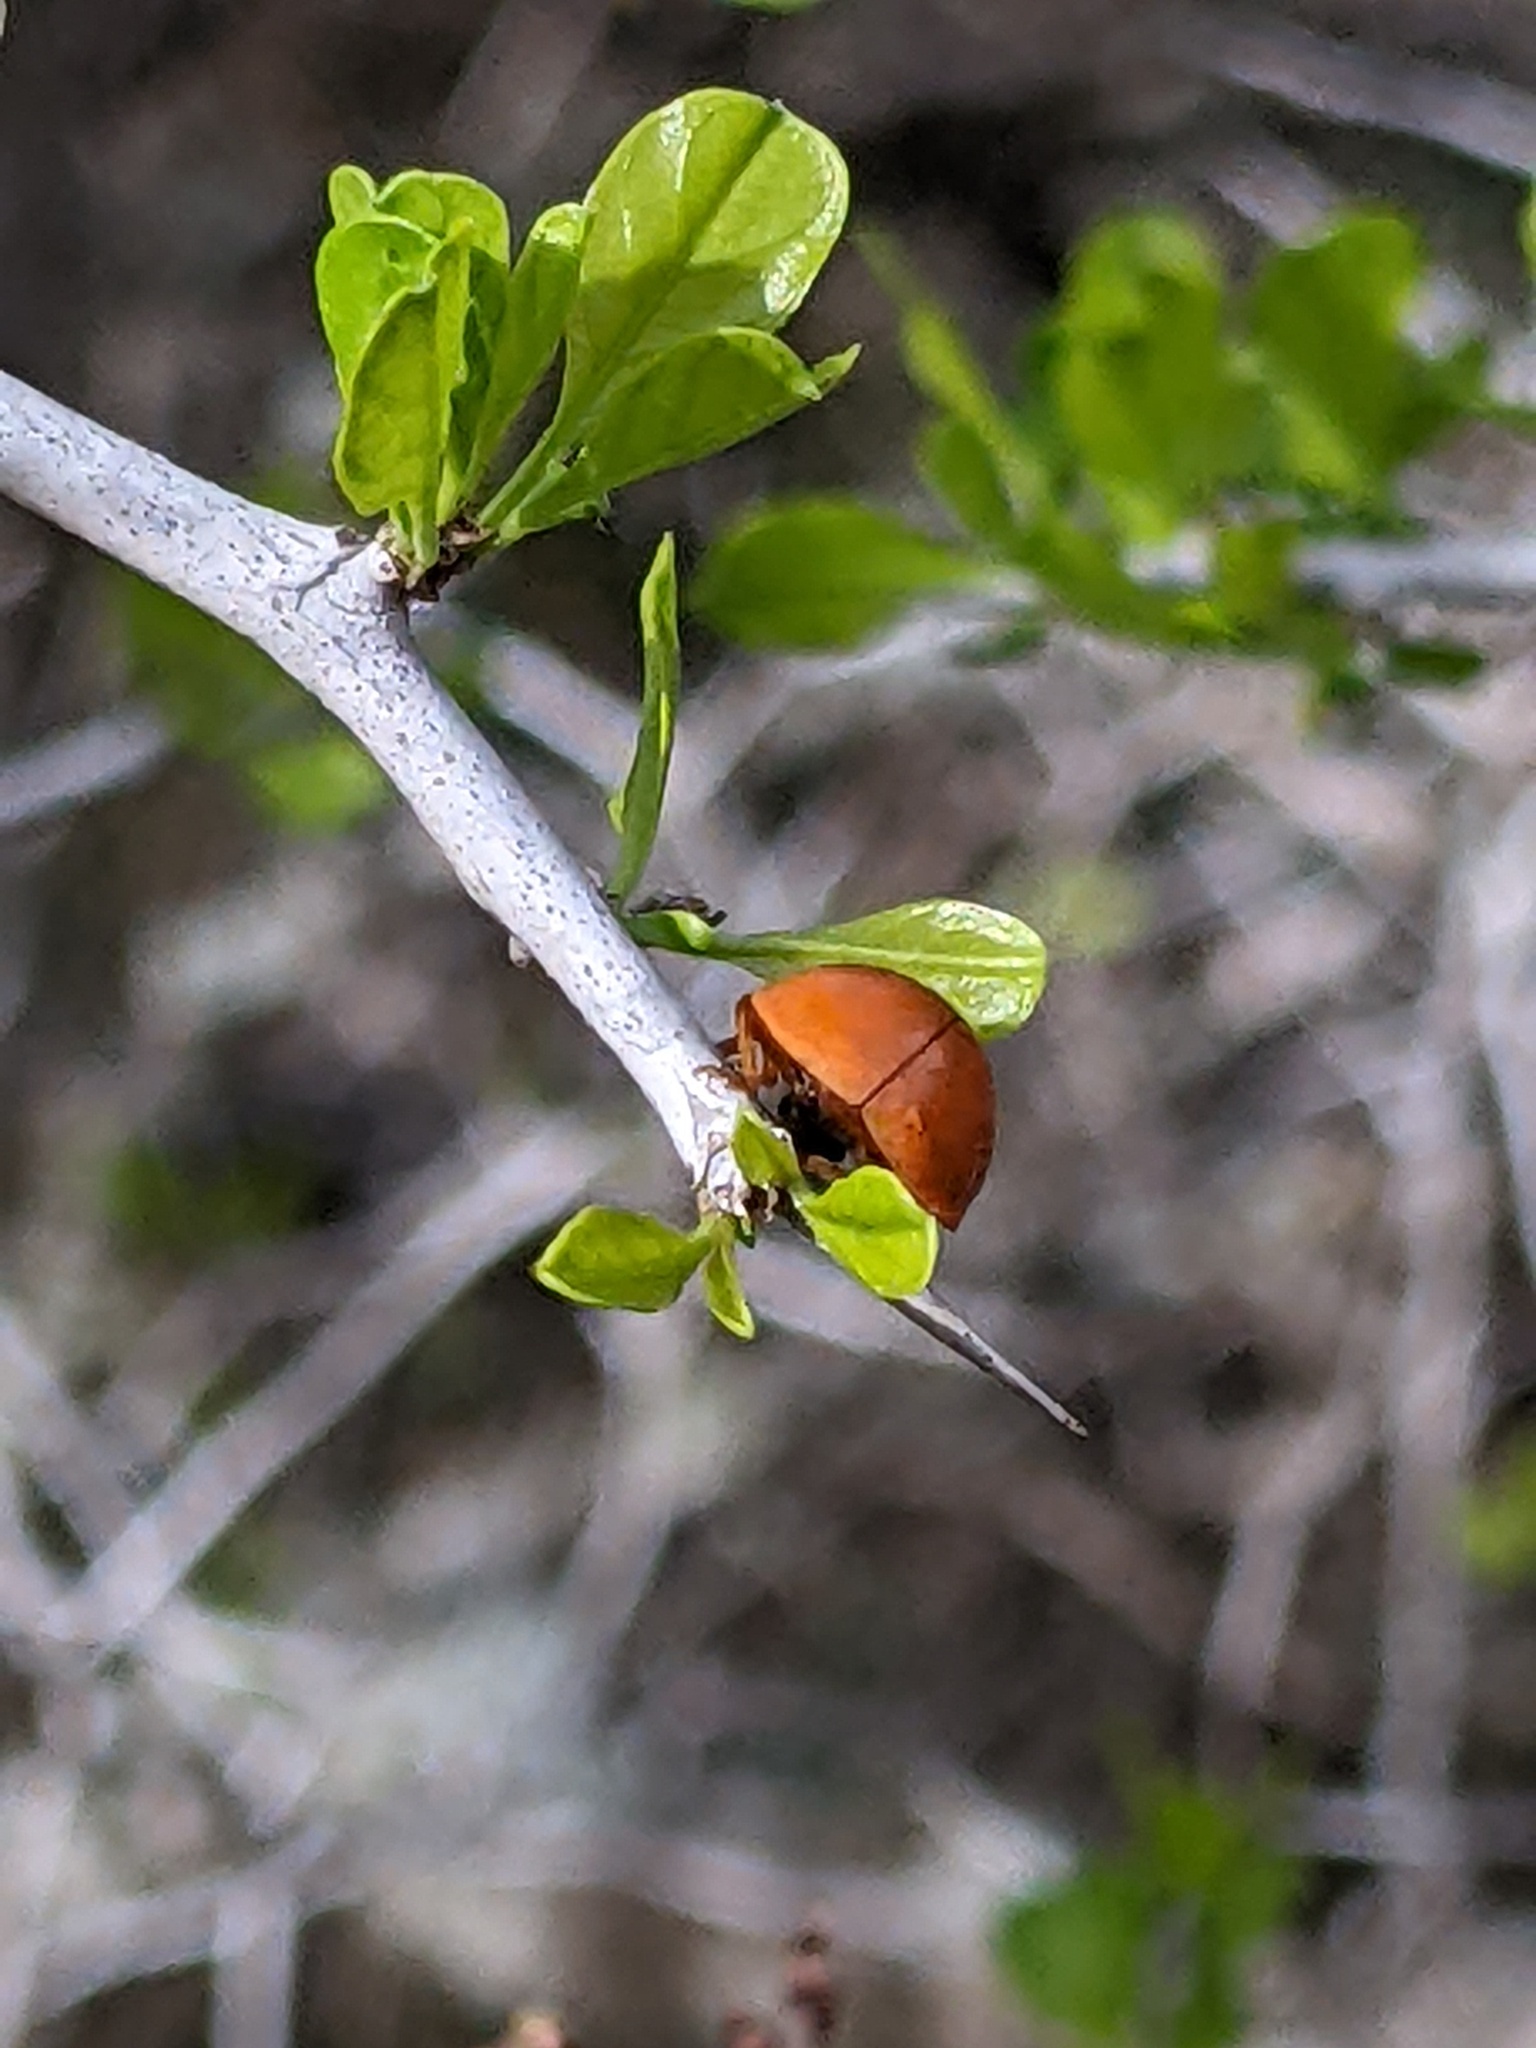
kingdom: Animalia
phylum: Arthropoda
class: Insecta
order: Coleoptera
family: Coccinellidae
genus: Harmonia
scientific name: Harmonia axyridis
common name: Harlequin ladybird
